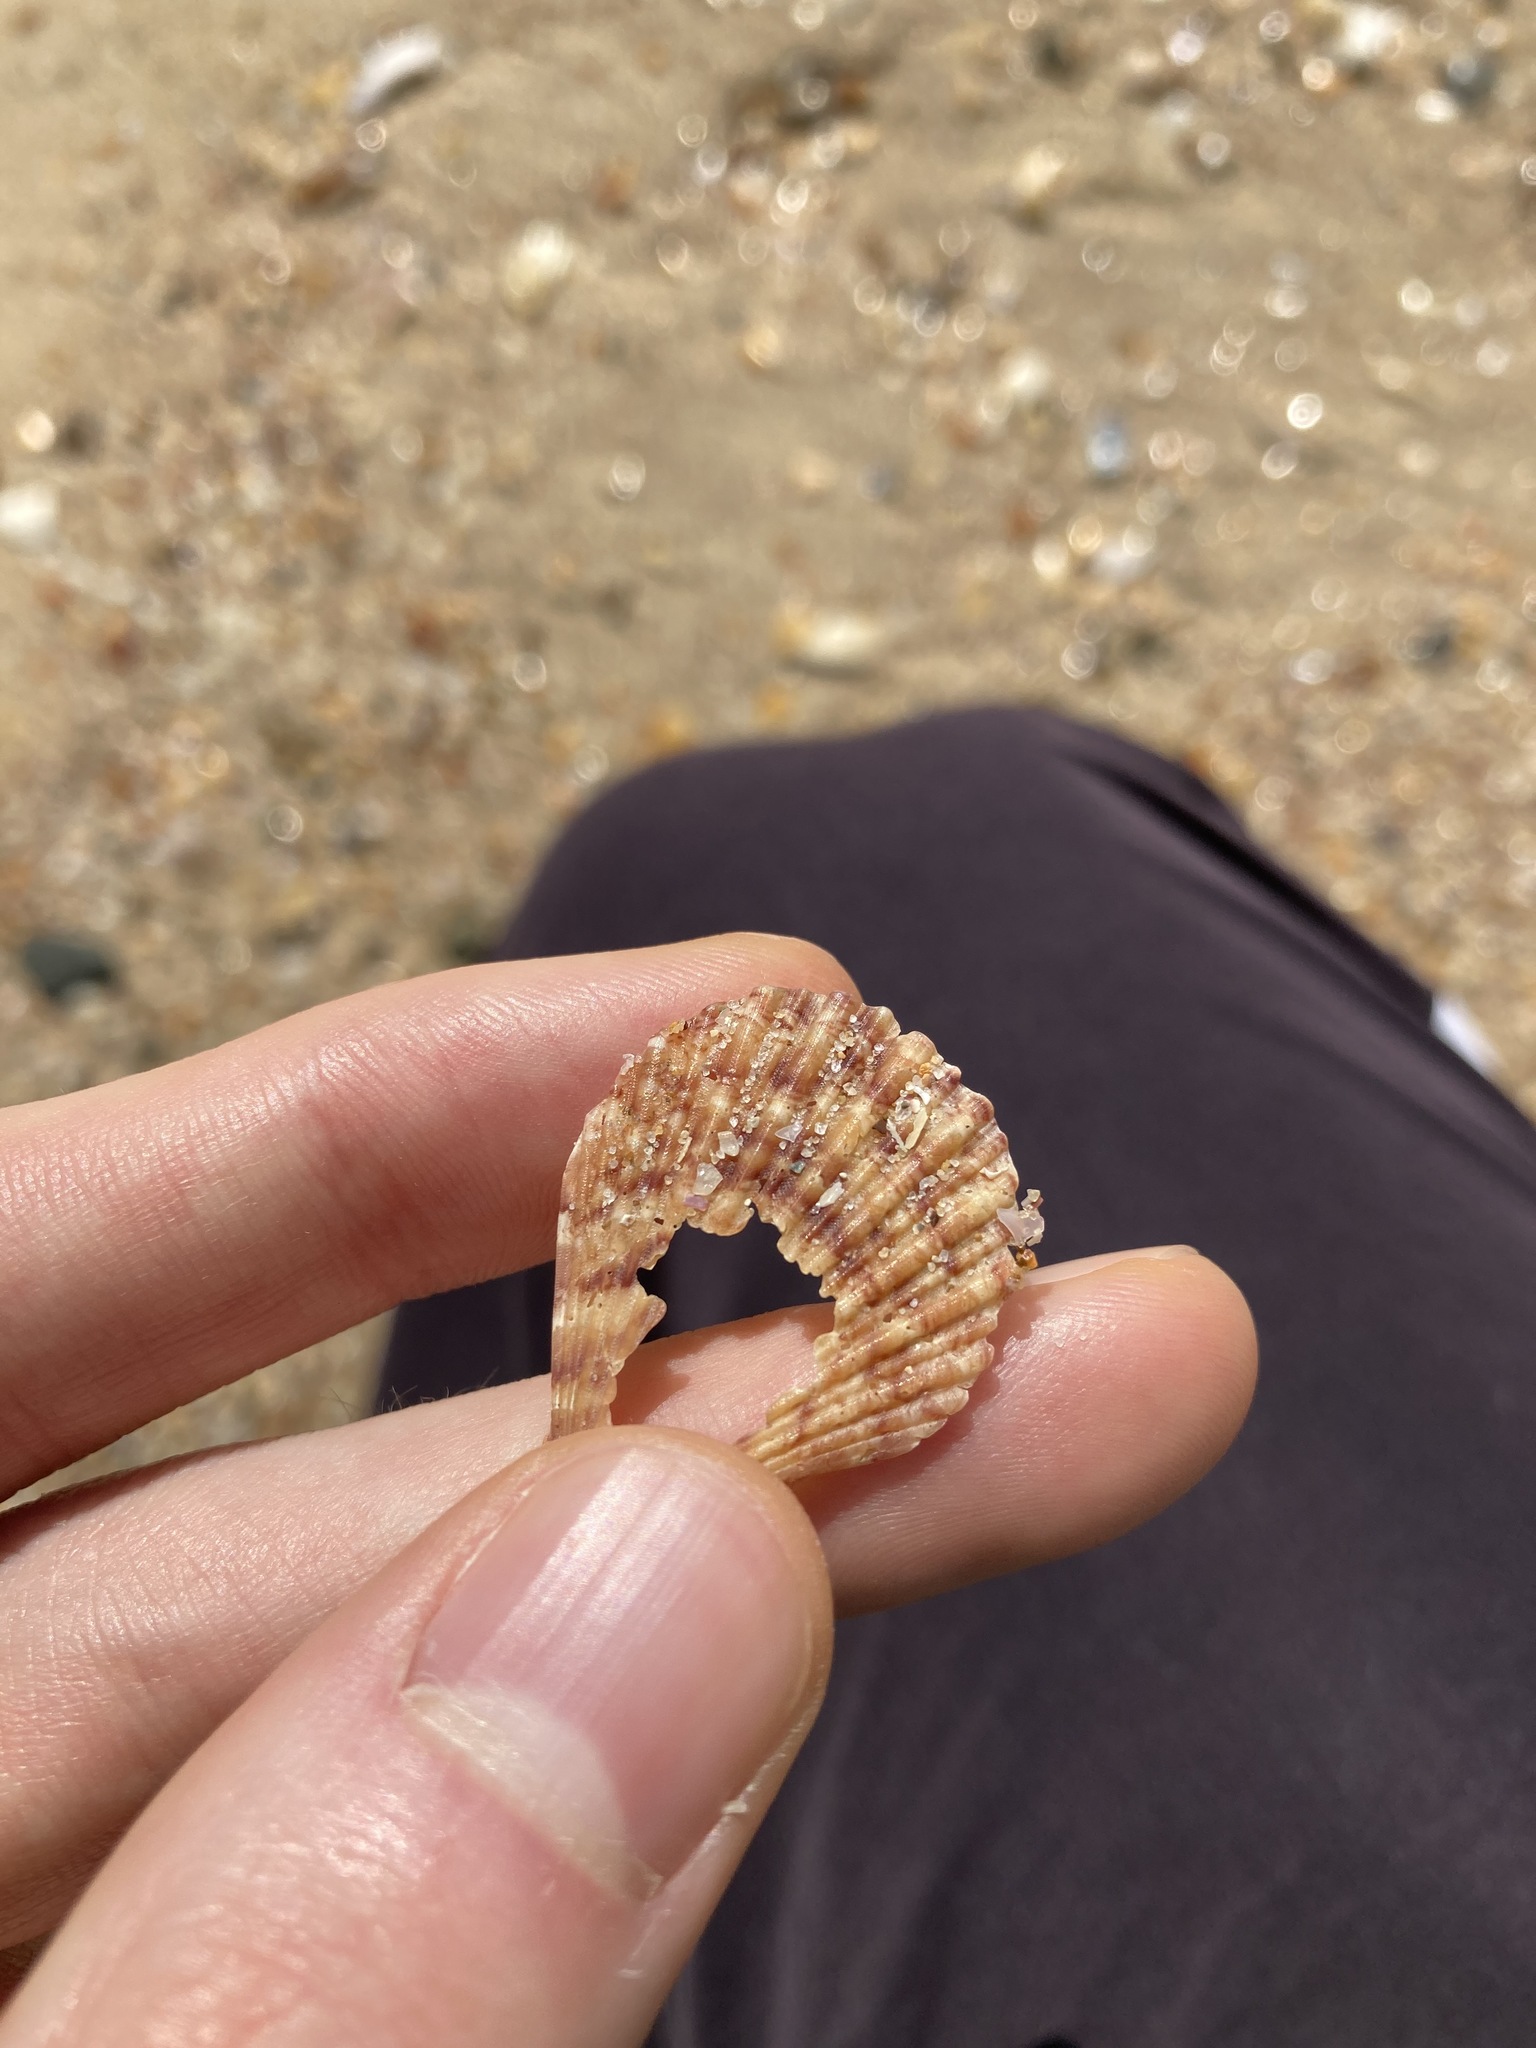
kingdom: Animalia
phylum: Mollusca
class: Bivalvia
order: Pectinida
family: Pectinidae
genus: Semipallium
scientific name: Semipallium aktinos
